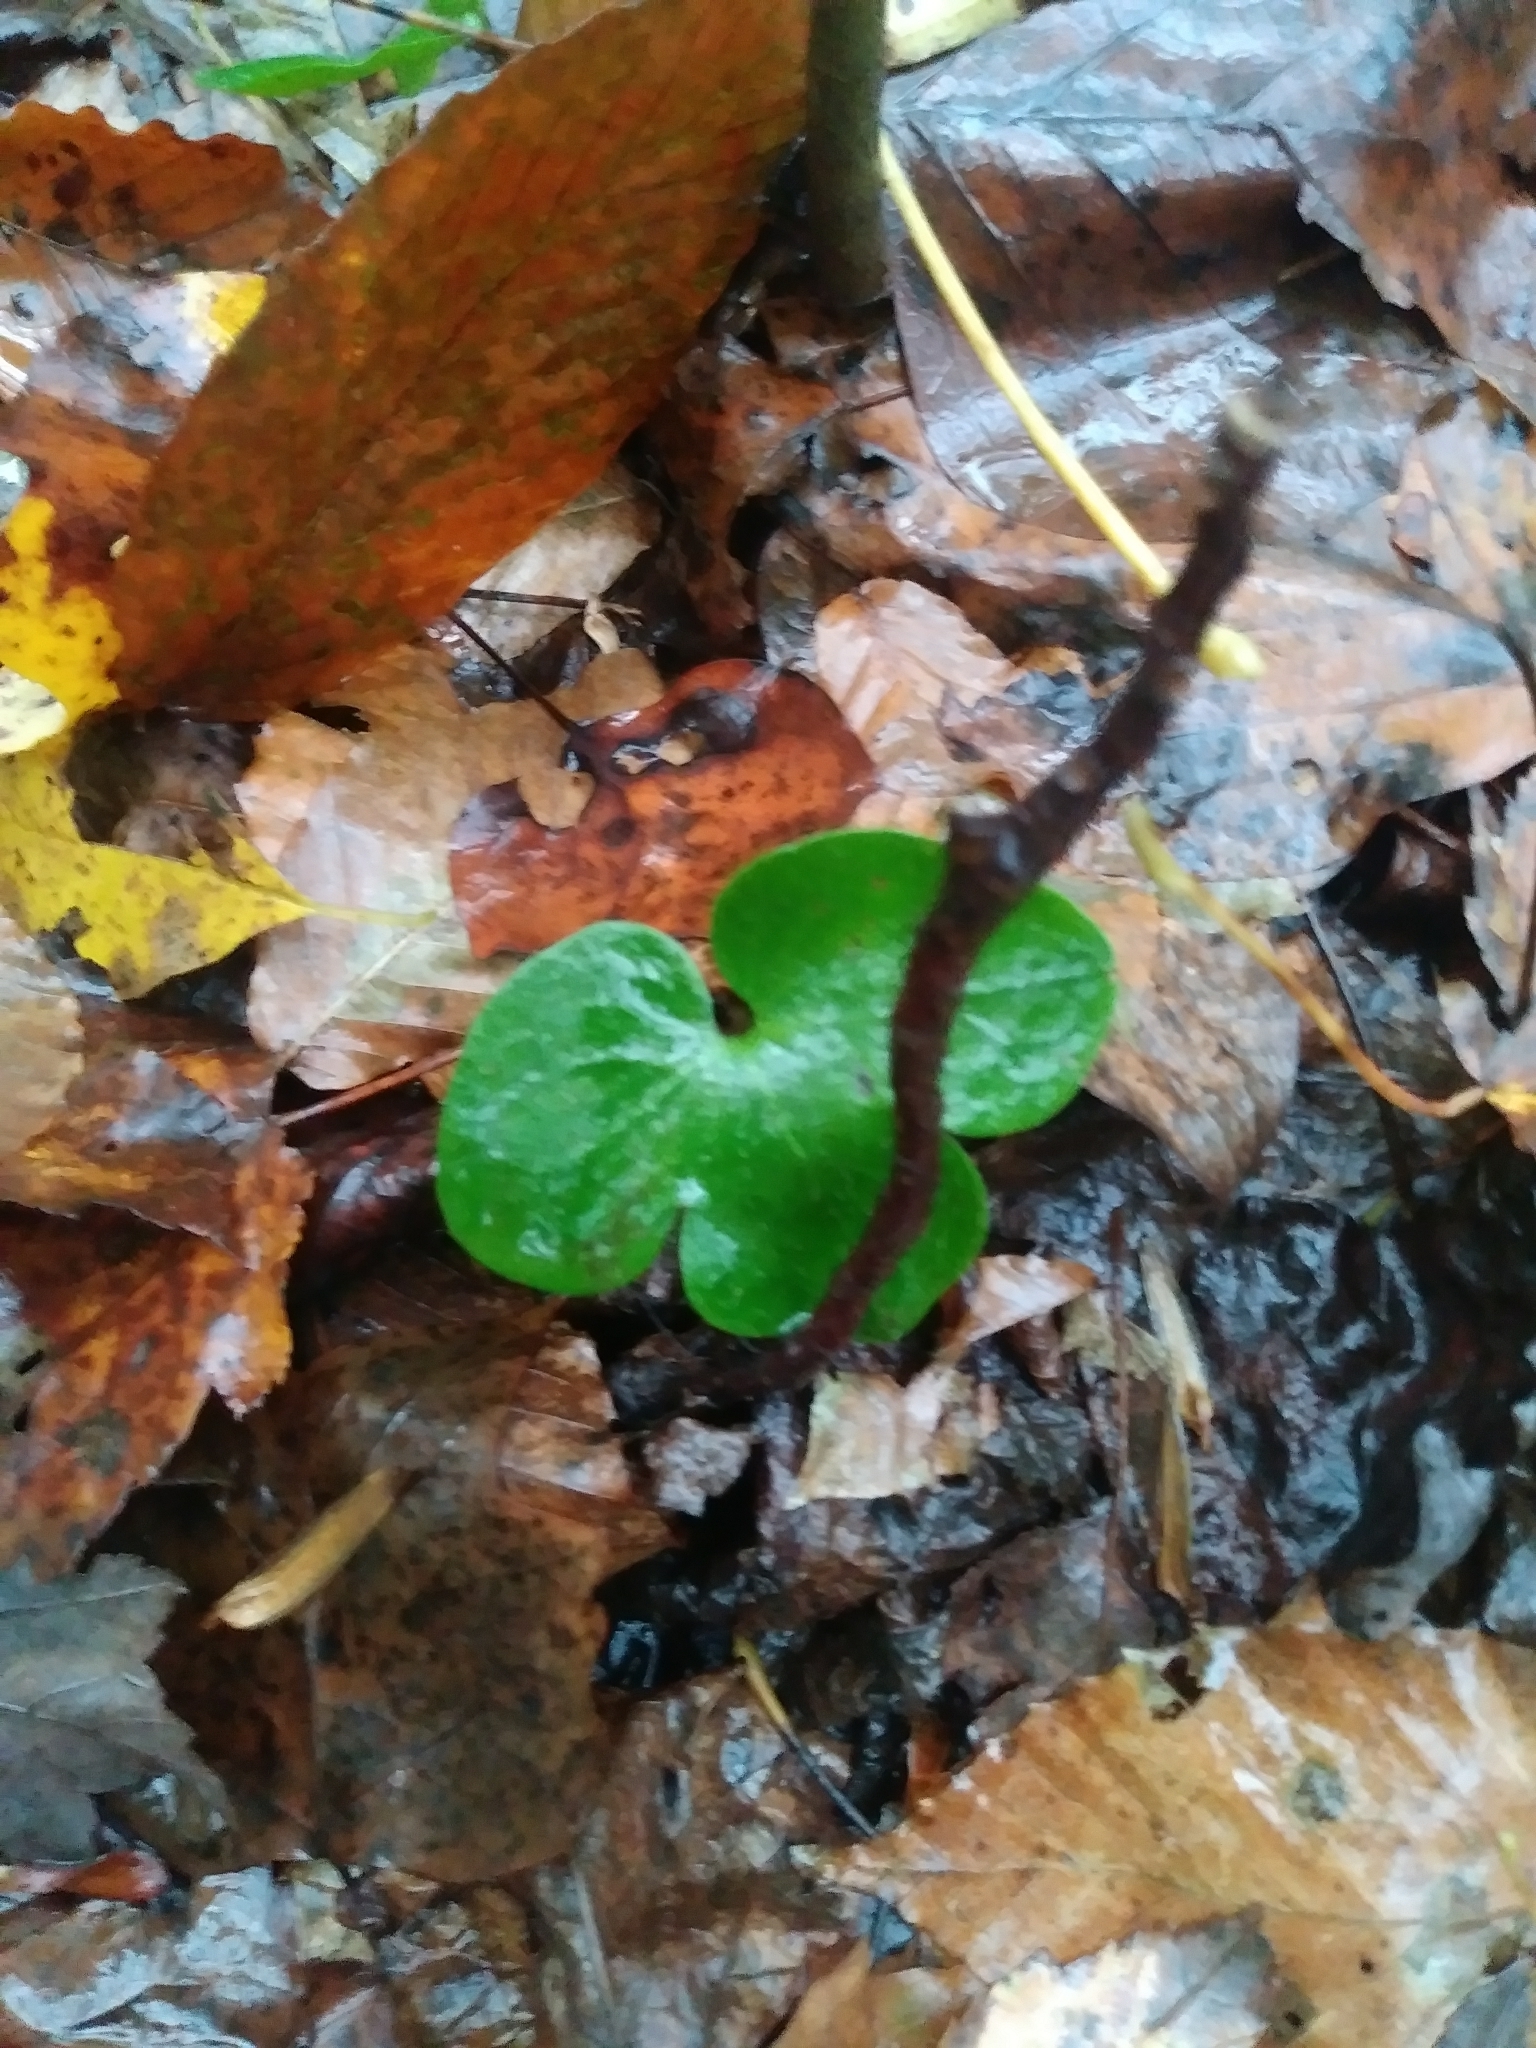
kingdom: Plantae
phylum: Tracheophyta
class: Magnoliopsida
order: Ranunculales
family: Ranunculaceae
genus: Hepatica
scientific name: Hepatica americana
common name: American hepatica
